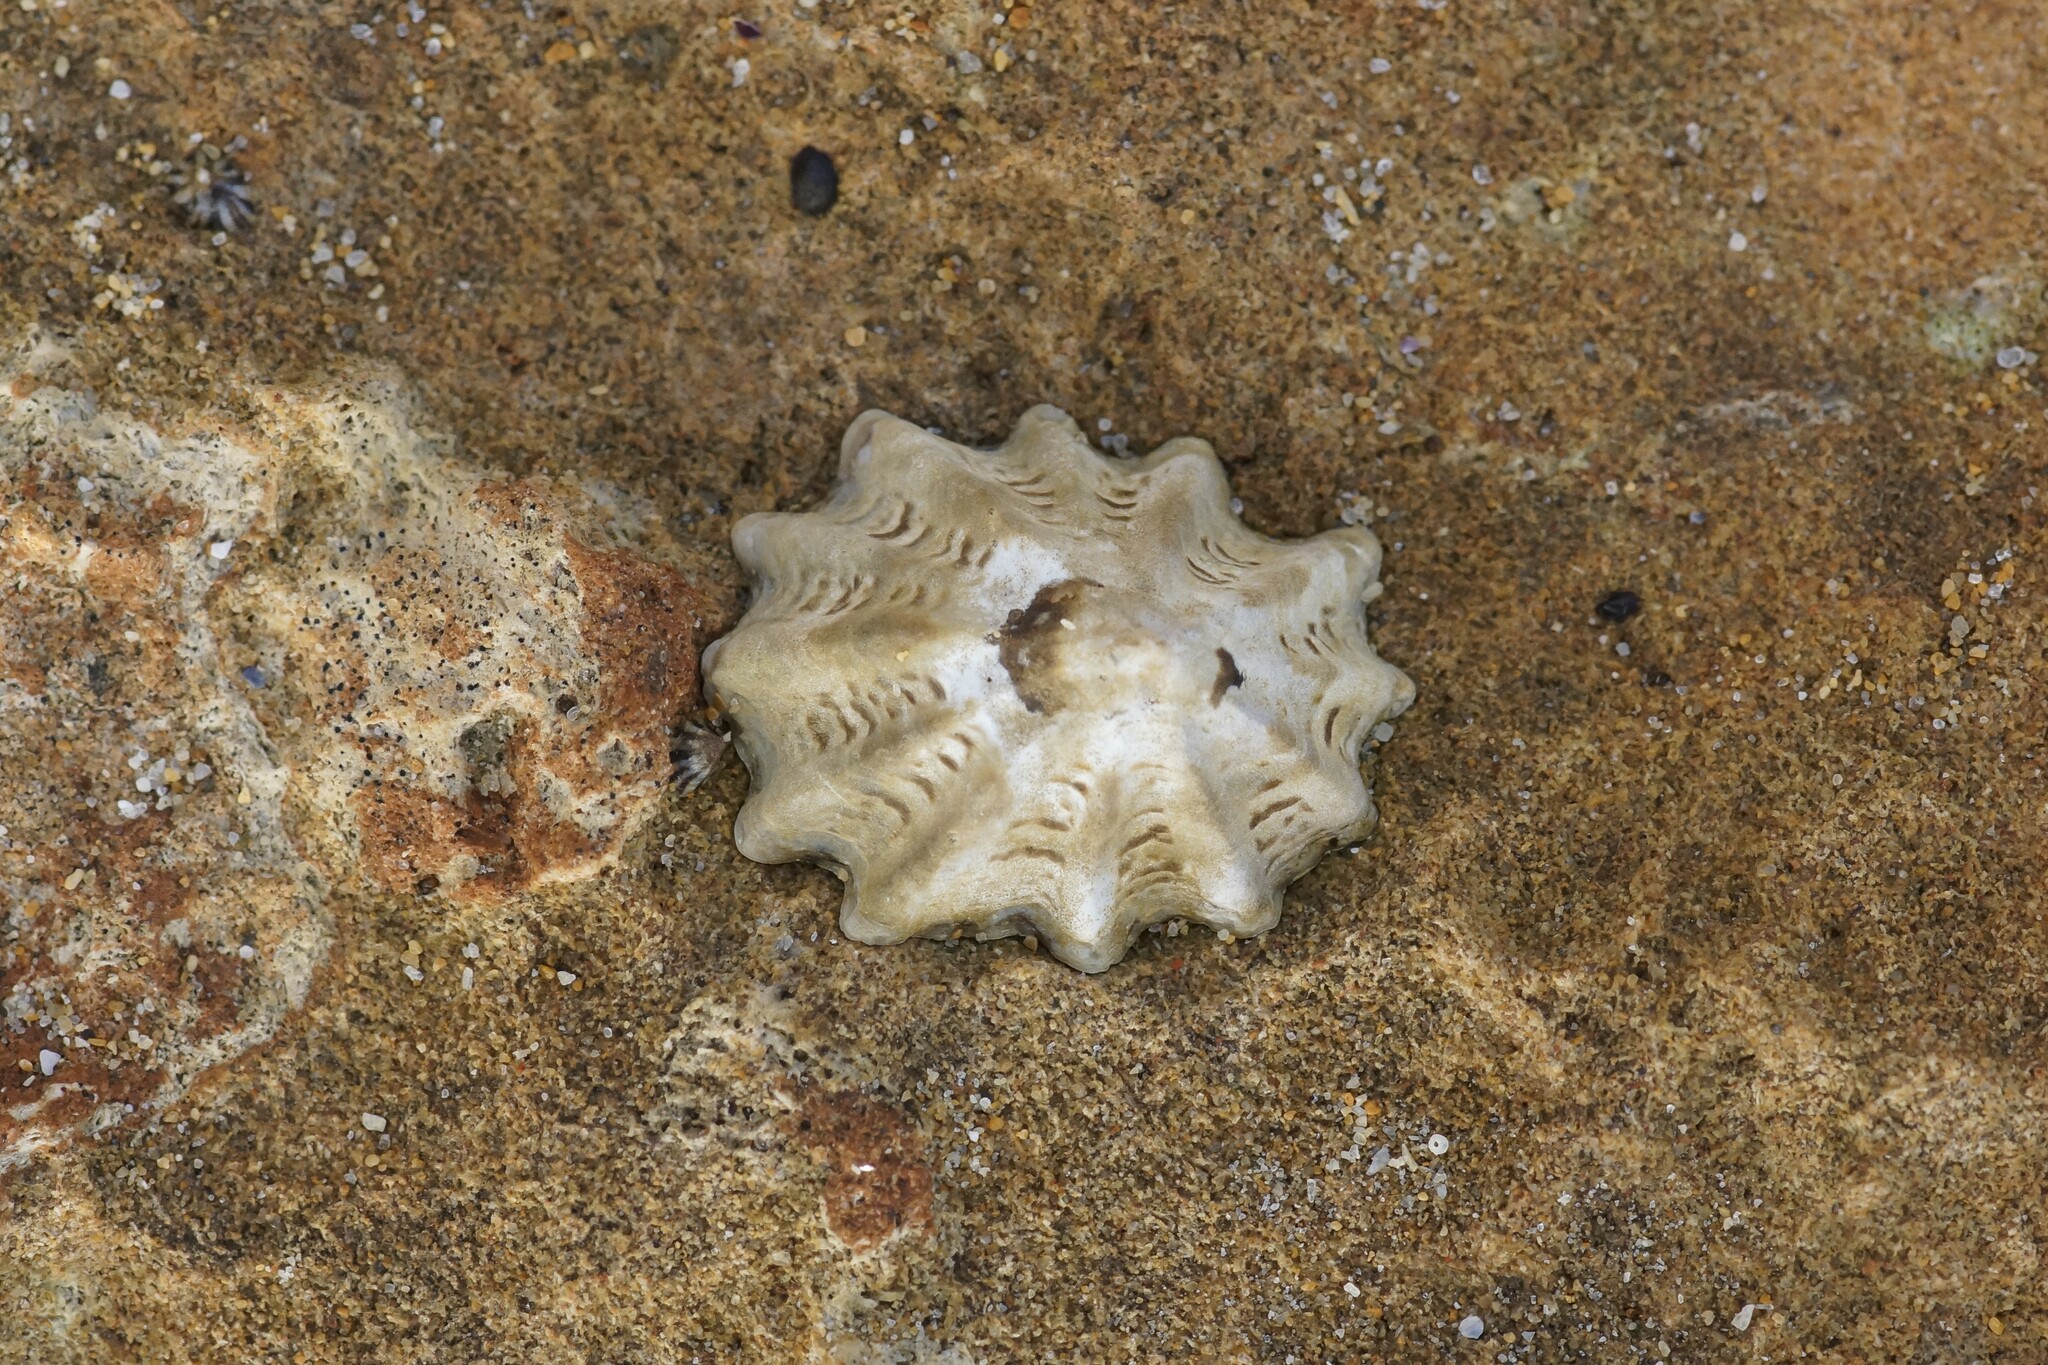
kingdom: Animalia
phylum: Mollusca
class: Gastropoda
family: Lottiidae
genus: Patelloida
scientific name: Patelloida alticostata
